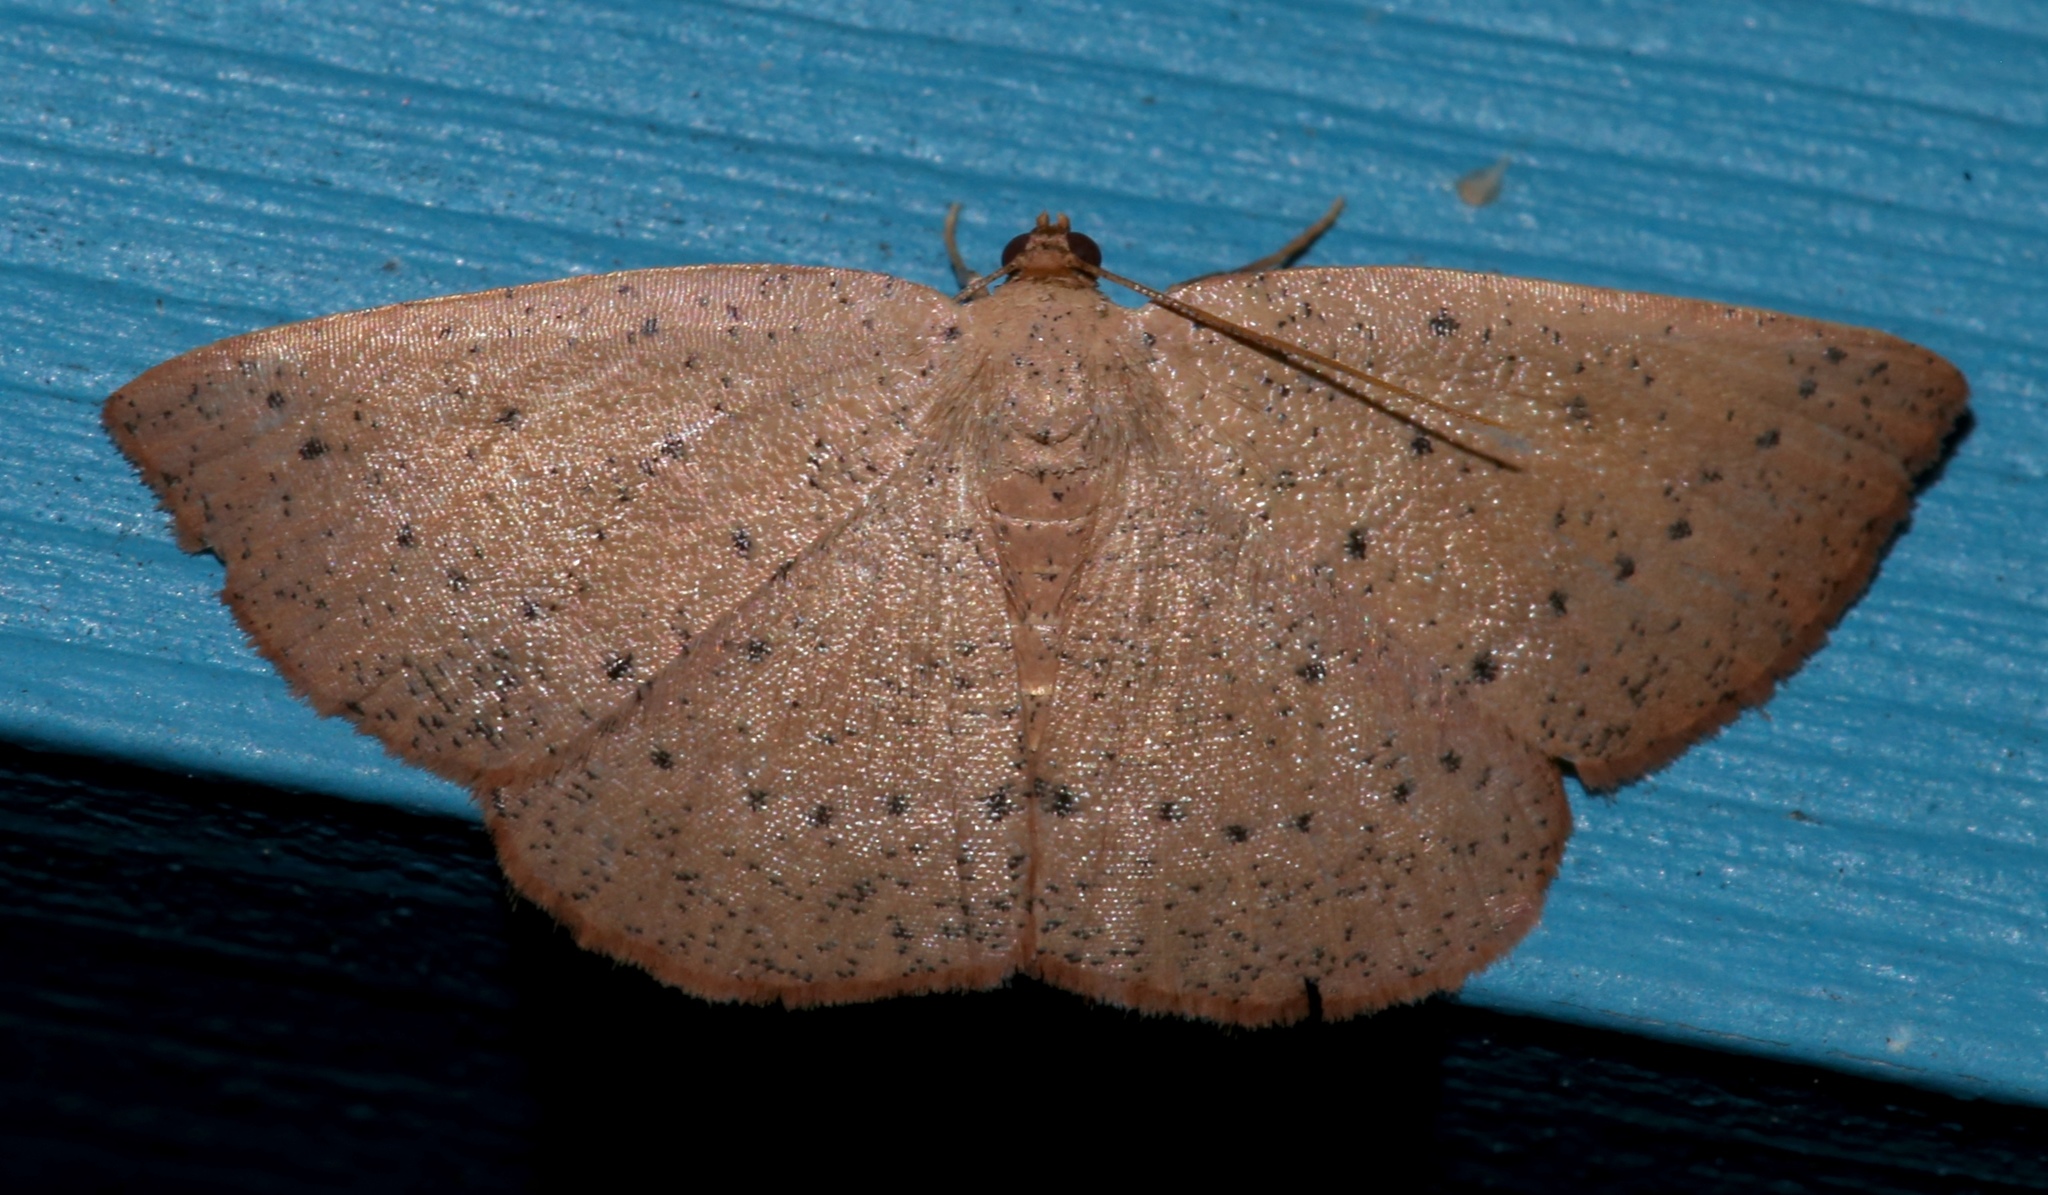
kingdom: Animalia
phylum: Arthropoda
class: Insecta
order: Lepidoptera
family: Geometridae
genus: Episemasia
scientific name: Episemasia solitaria
